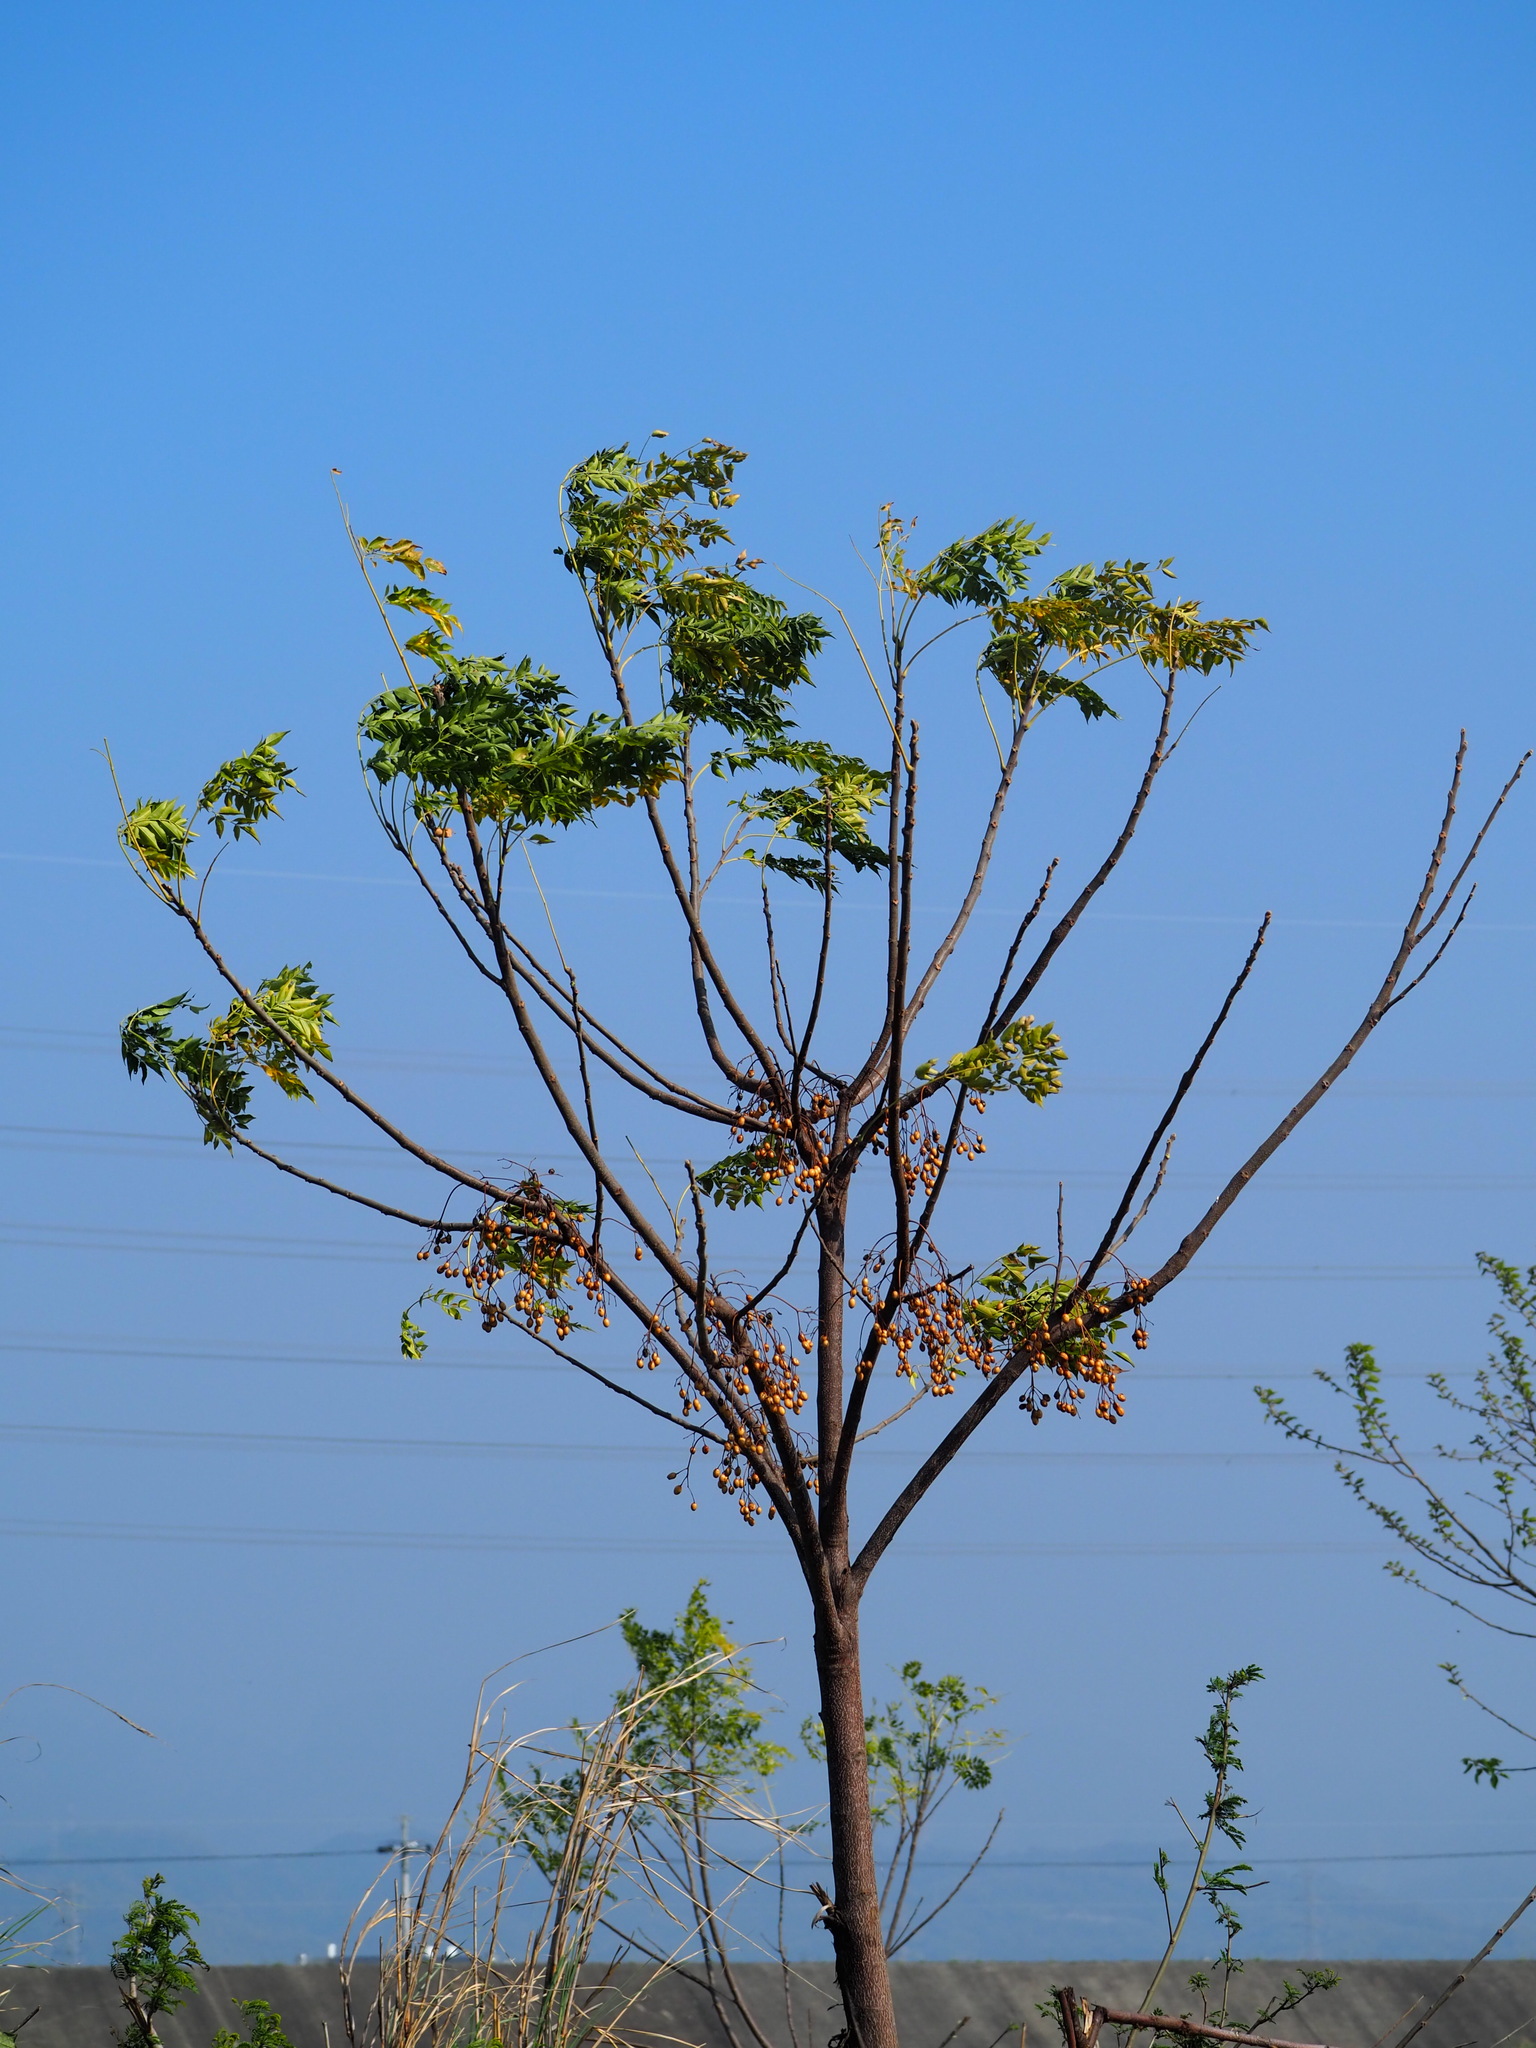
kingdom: Plantae
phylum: Tracheophyta
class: Magnoliopsida
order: Sapindales
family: Meliaceae
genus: Melia
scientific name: Melia azedarach
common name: Chinaberrytree
